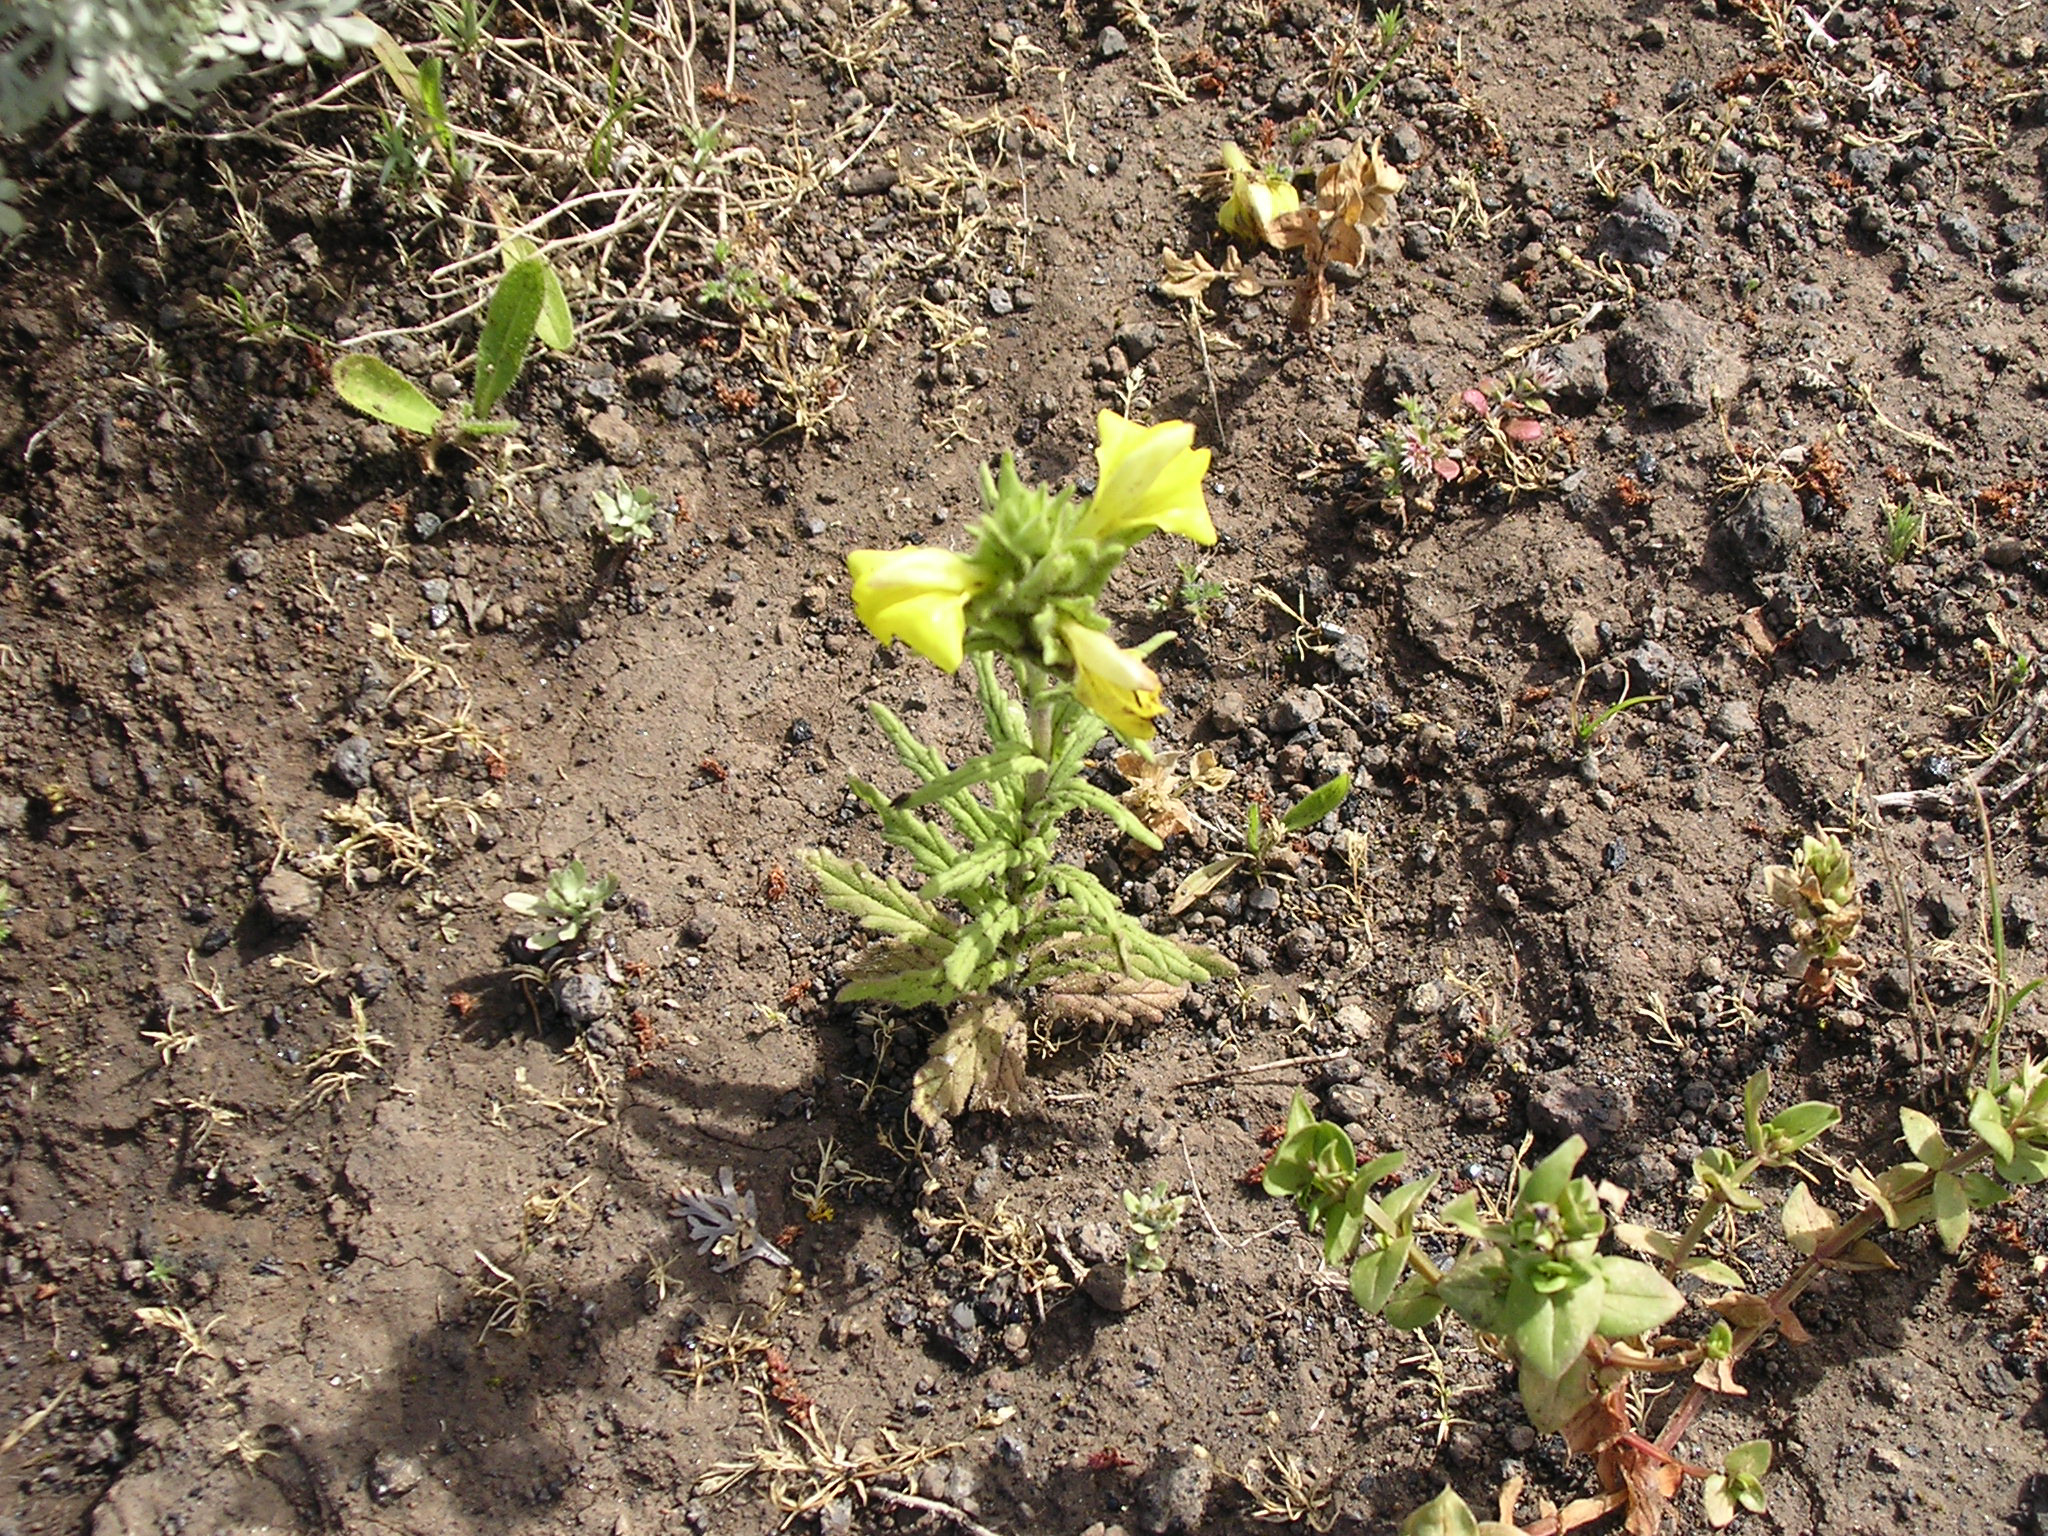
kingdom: Plantae
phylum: Tracheophyta
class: Magnoliopsida
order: Lamiales
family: Orobanchaceae
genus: Bellardia
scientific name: Bellardia trixago
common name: Mediterranean lineseed
